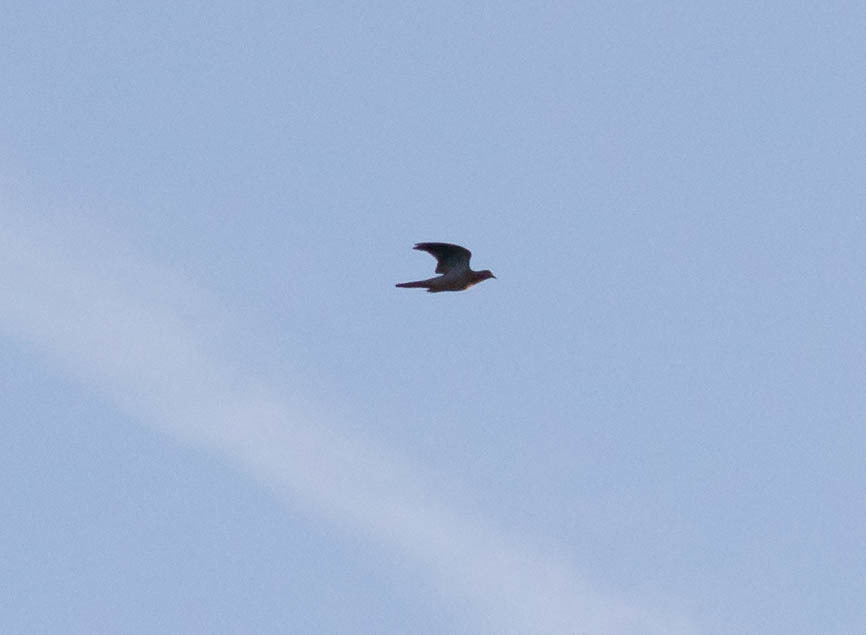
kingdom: Animalia
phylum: Chordata
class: Aves
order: Columbiformes
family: Columbidae
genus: Zenaida
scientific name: Zenaida macroura
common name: Mourning dove
